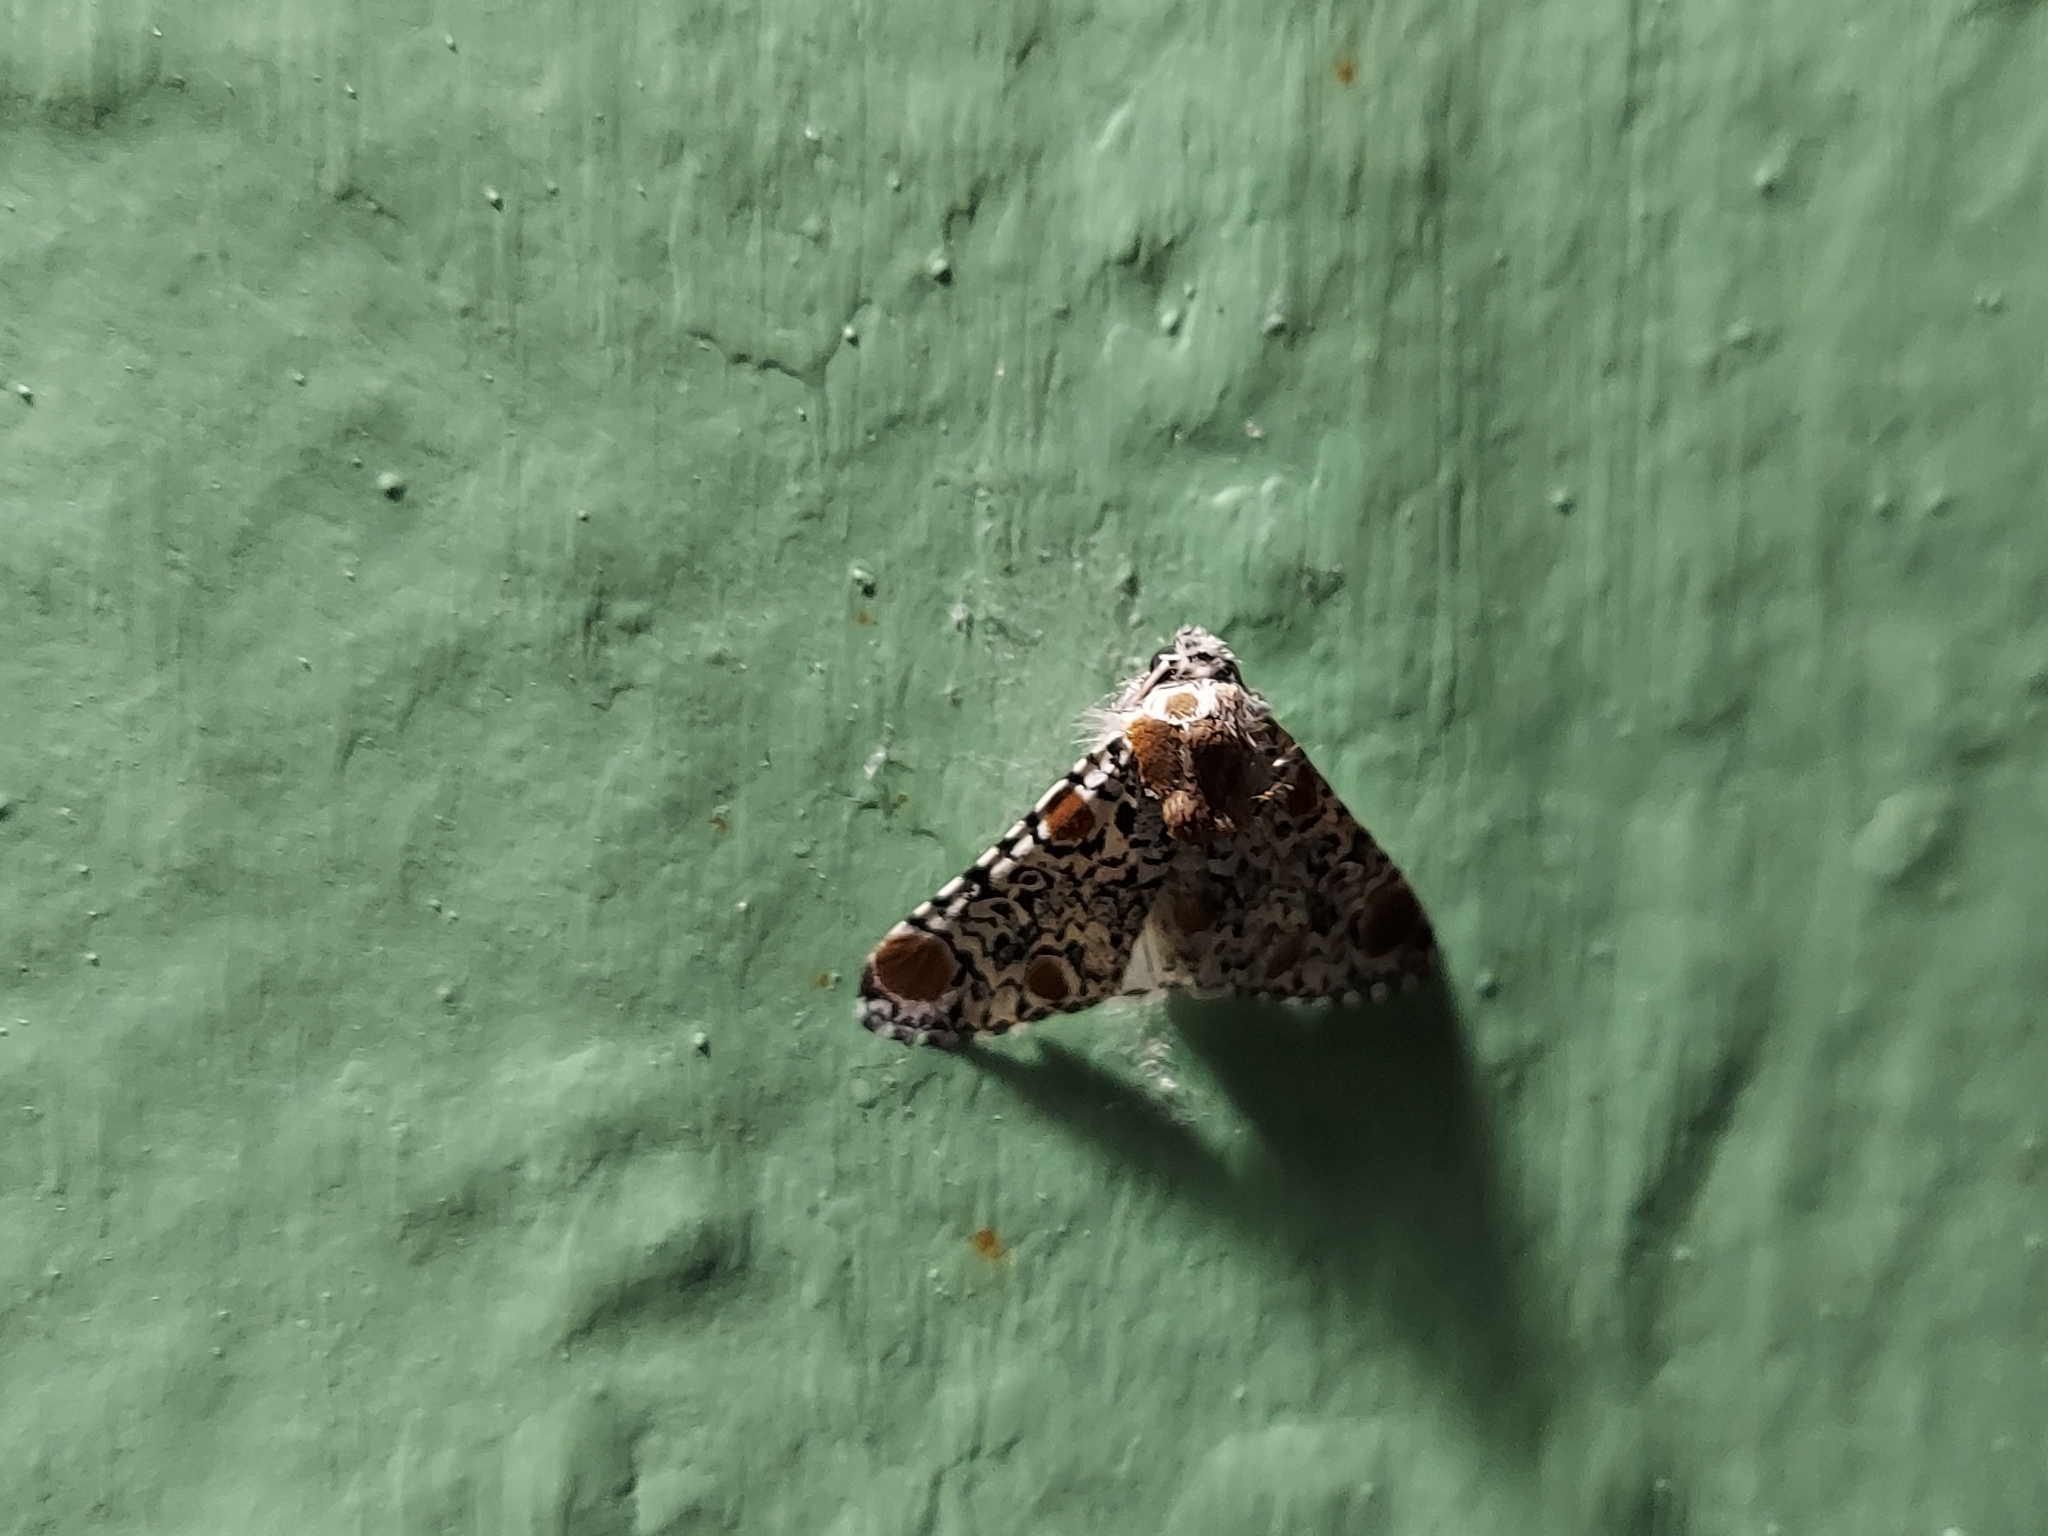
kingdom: Animalia
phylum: Arthropoda
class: Insecta
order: Lepidoptera
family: Noctuidae
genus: Harrisimemna
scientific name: Harrisimemna trisignata
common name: Harris threespot
